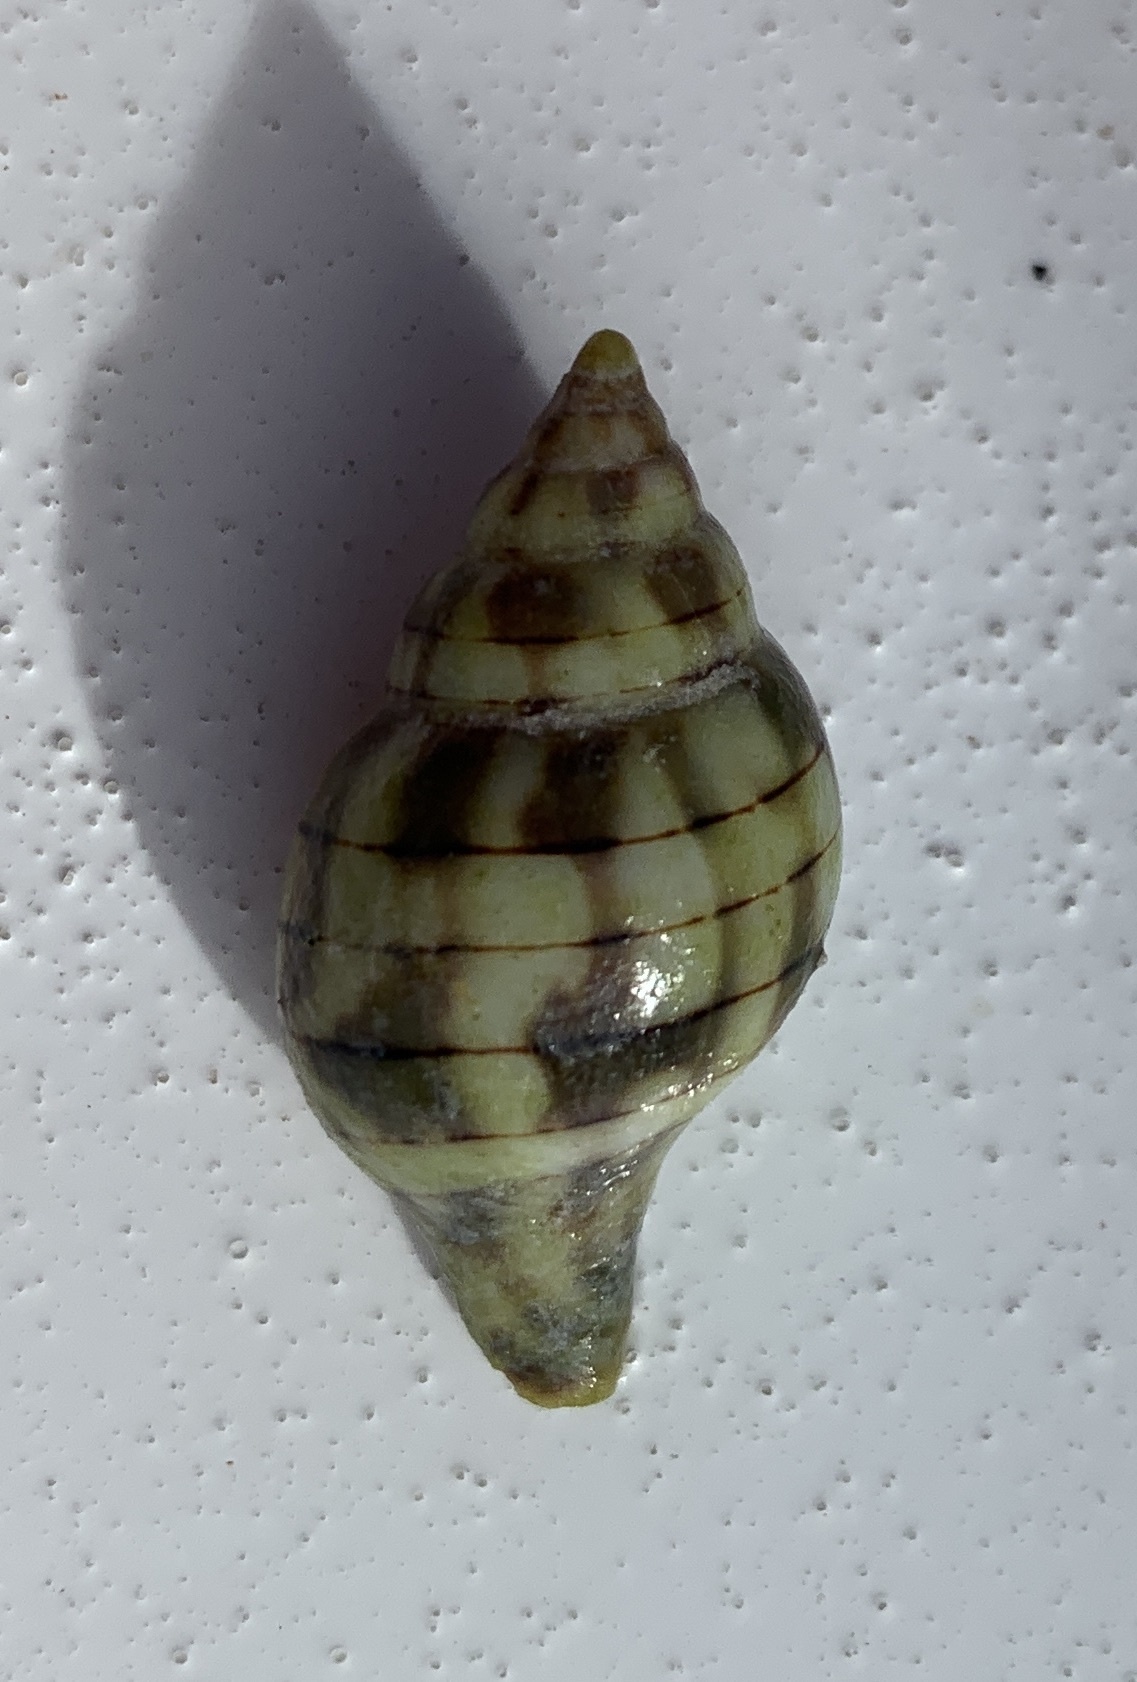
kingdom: Animalia
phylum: Mollusca
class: Gastropoda
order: Neogastropoda
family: Fasciolariidae
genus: Cinctura
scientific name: Cinctura hunteria
